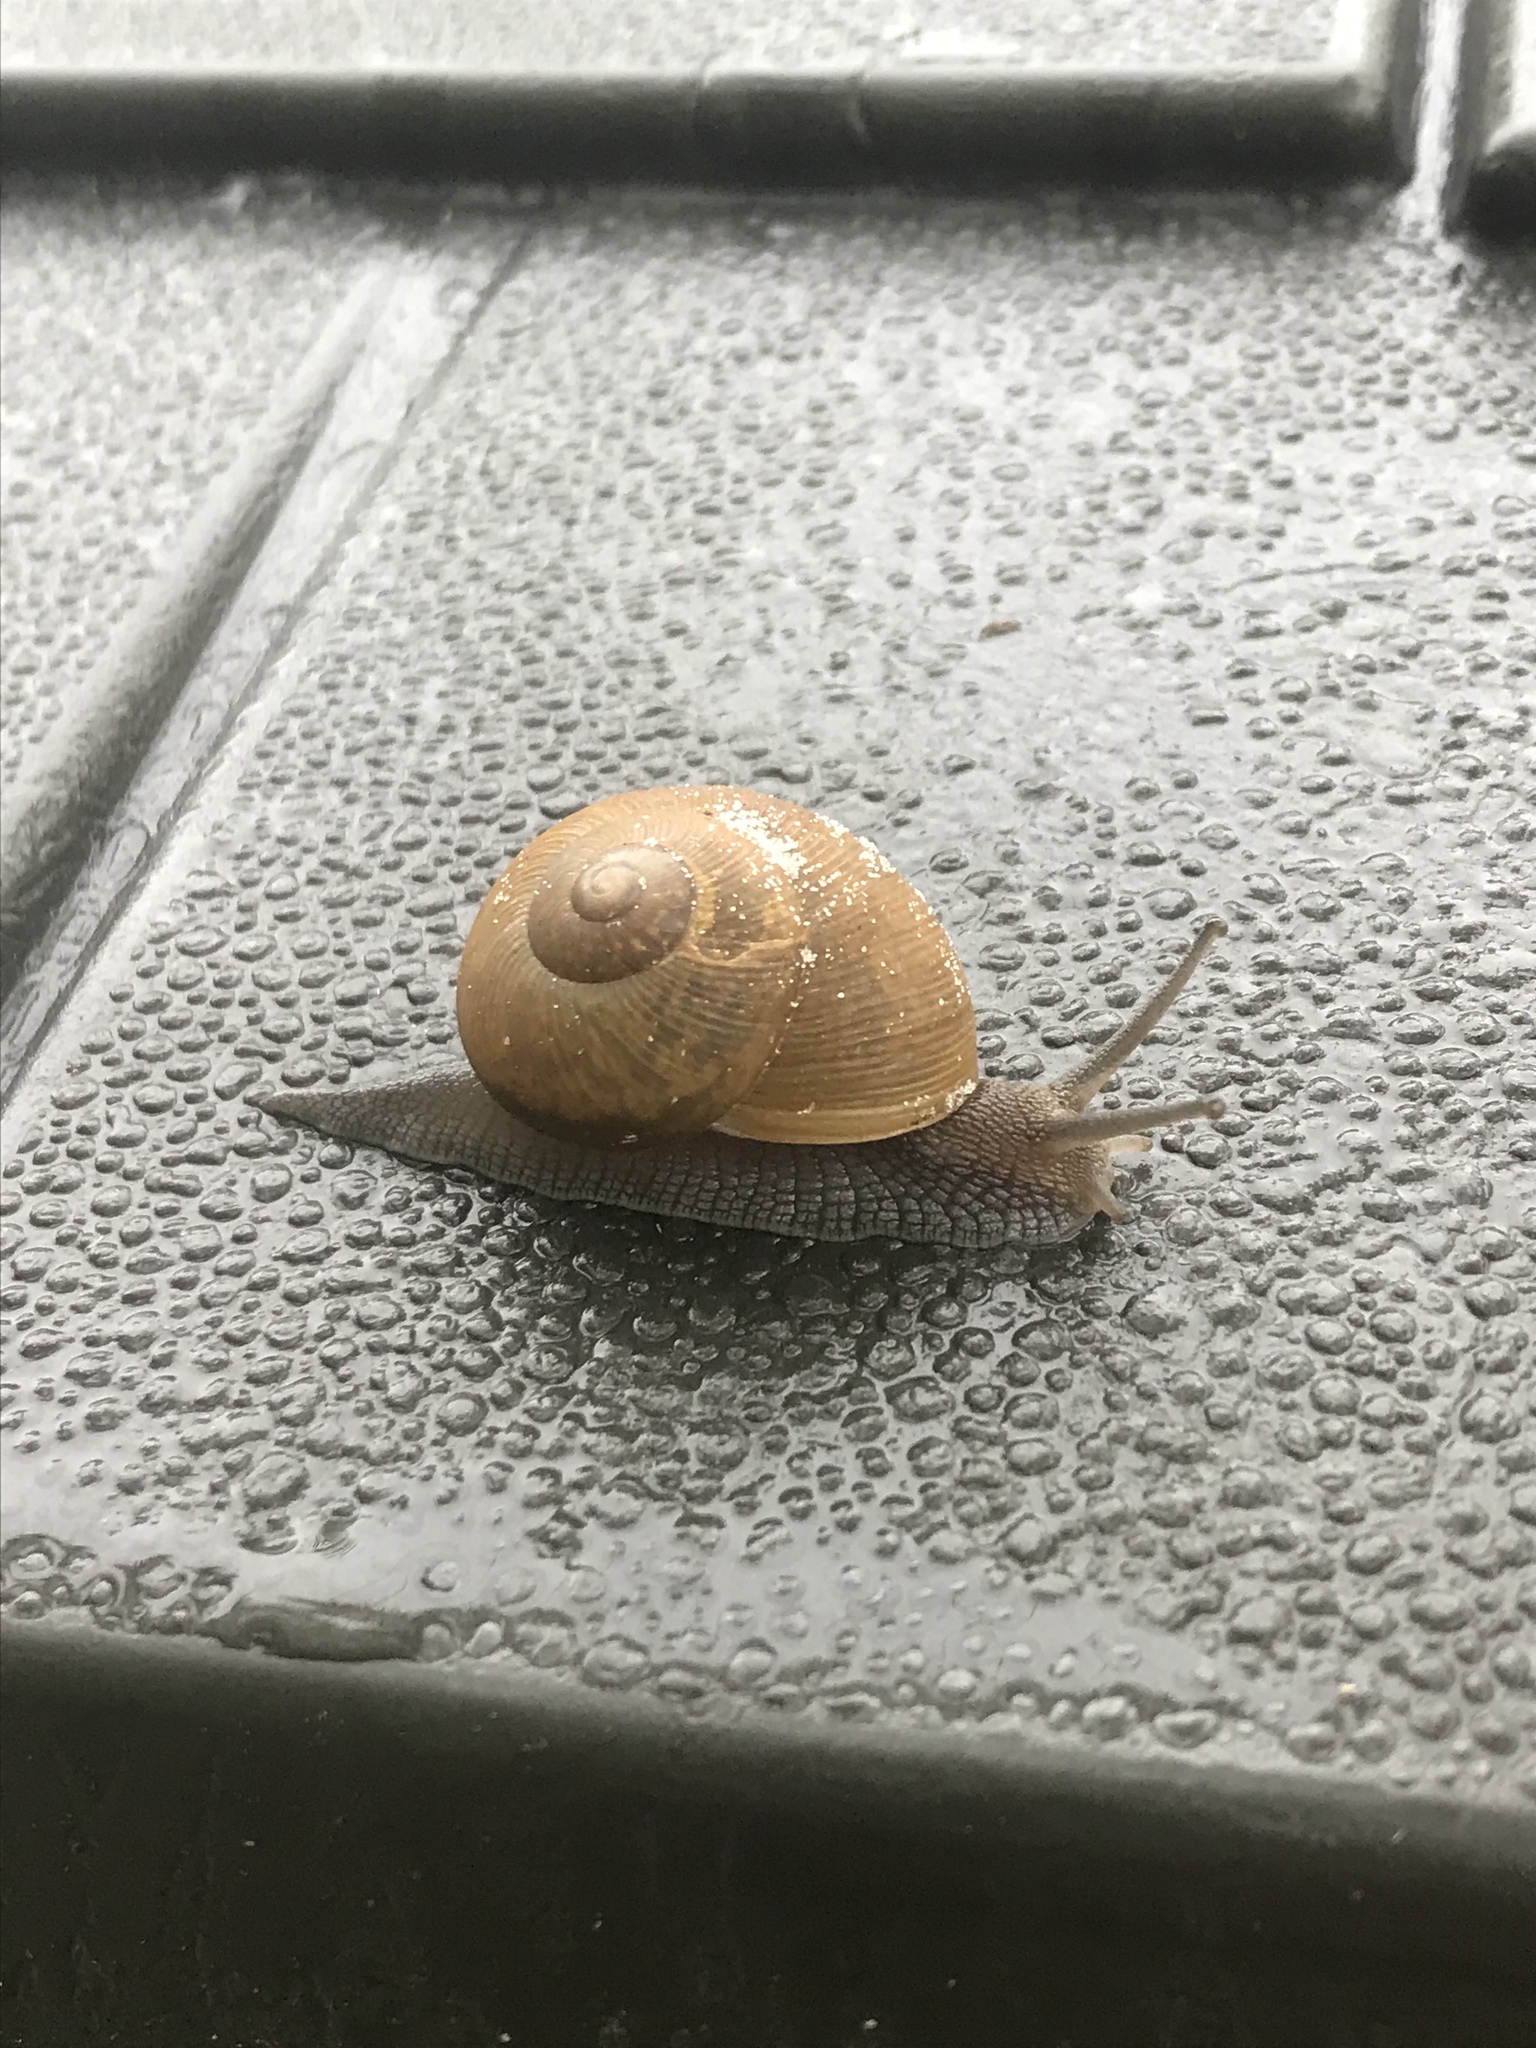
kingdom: Animalia
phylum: Mollusca
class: Gastropoda
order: Stylommatophora
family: Zachrysiidae
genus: Zachrysia
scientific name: Zachrysia provisoria
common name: Garden zachrysia
